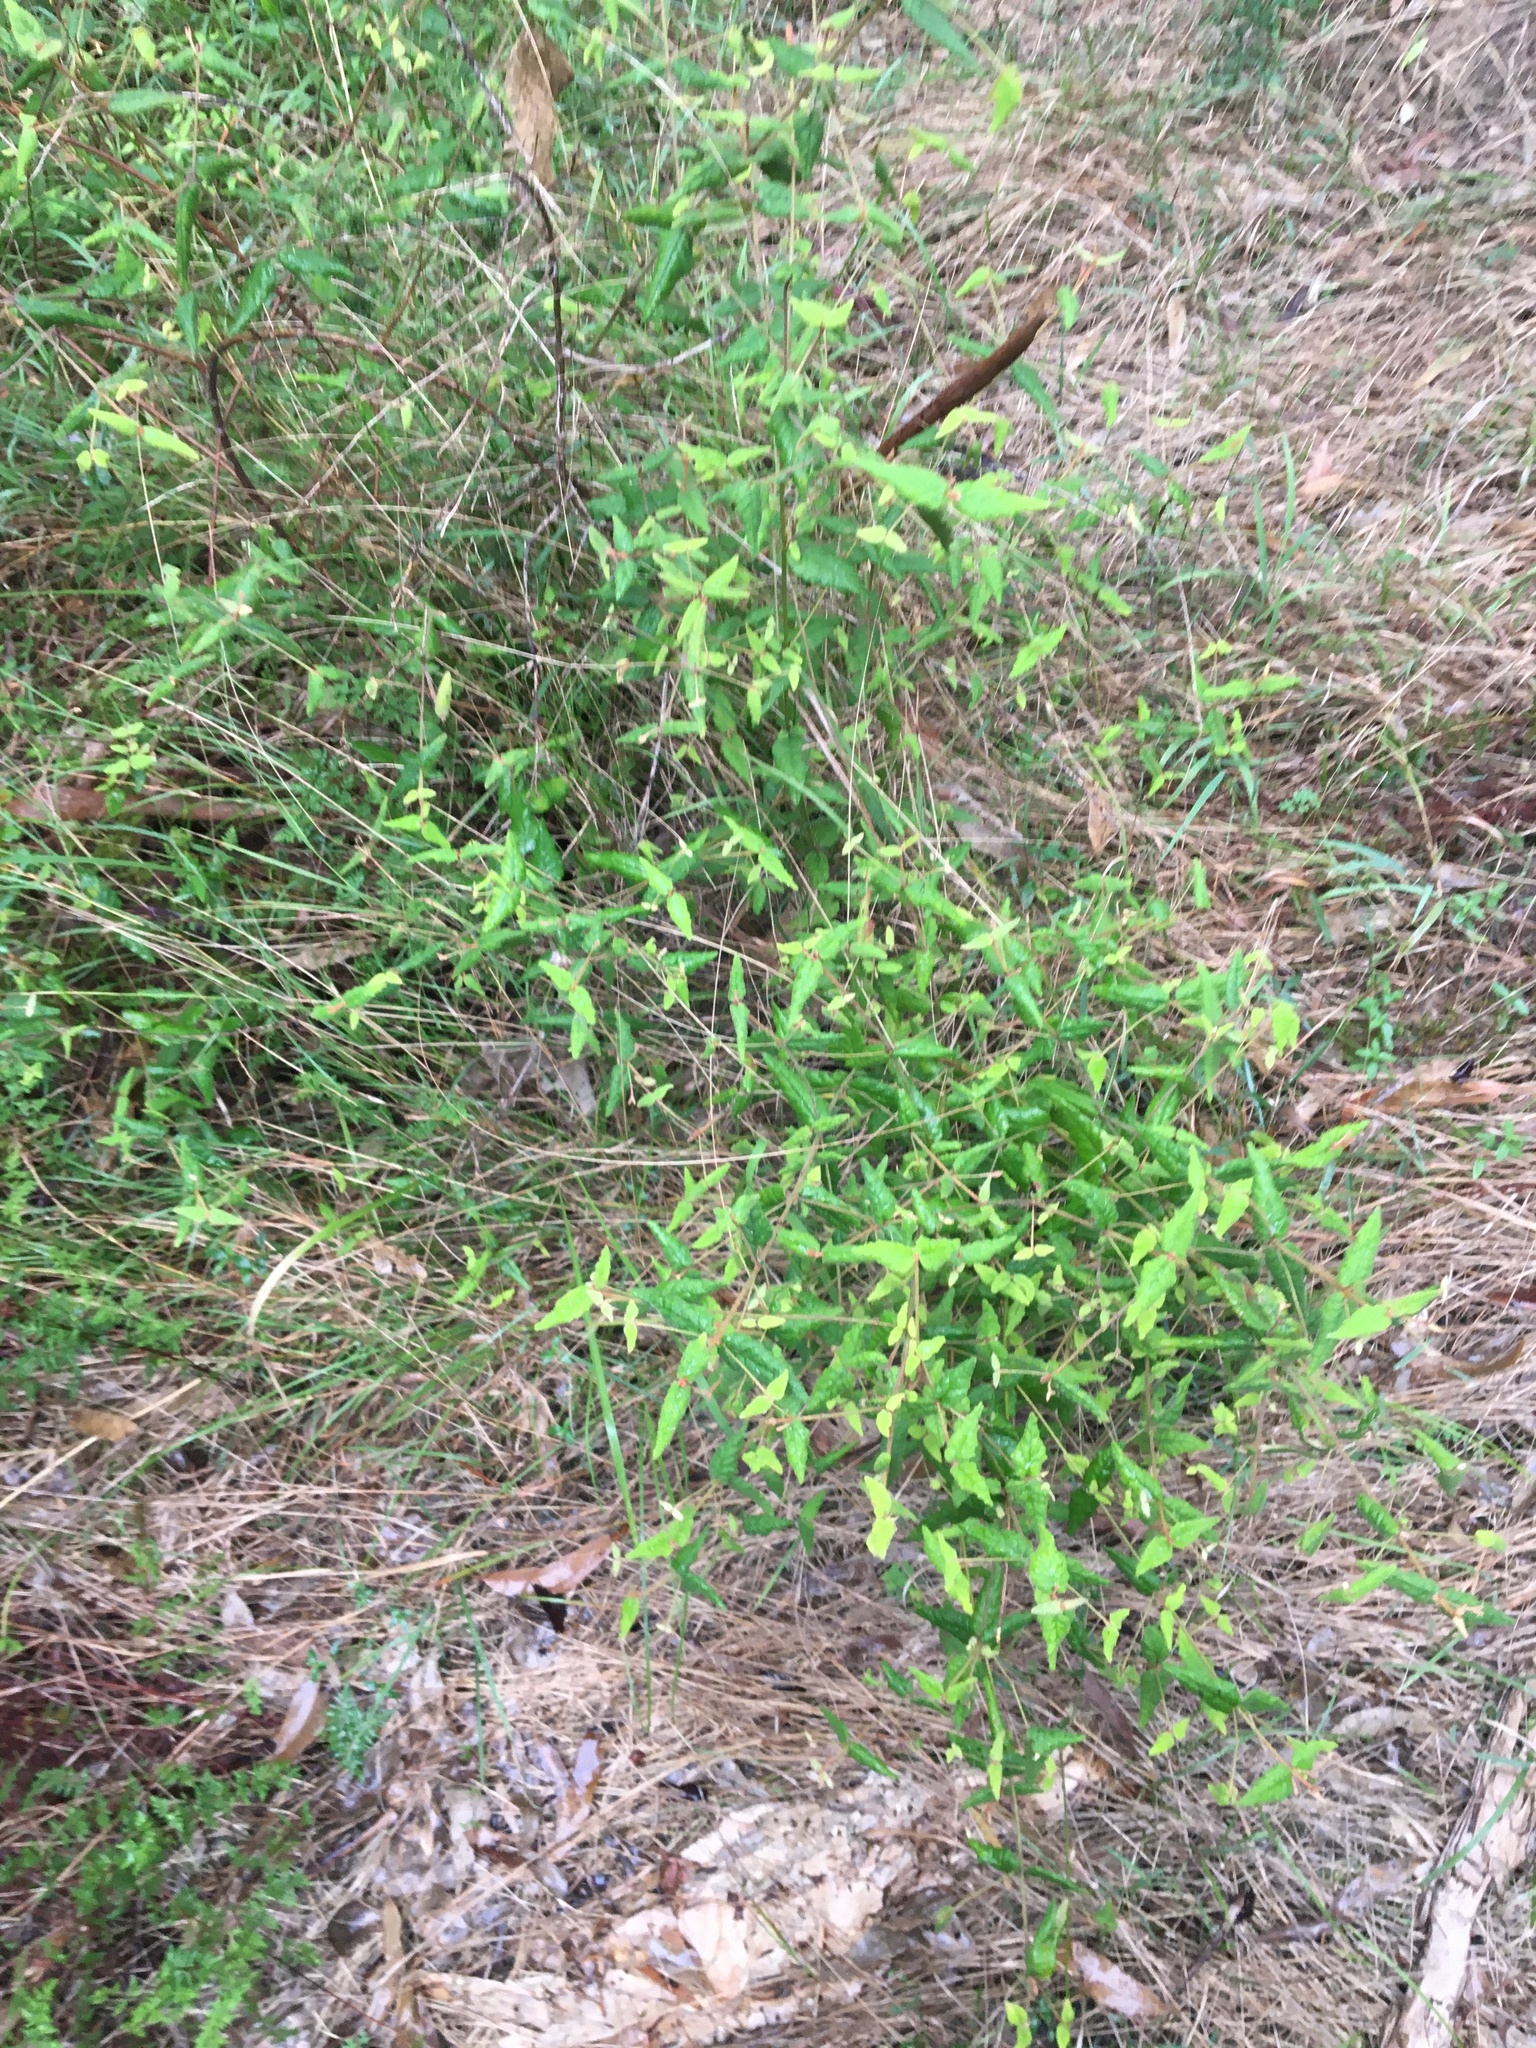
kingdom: Plantae
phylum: Tracheophyta
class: Magnoliopsida
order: Sapindales
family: Rutaceae
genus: Correa
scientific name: Correa reflexa
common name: Common correa
